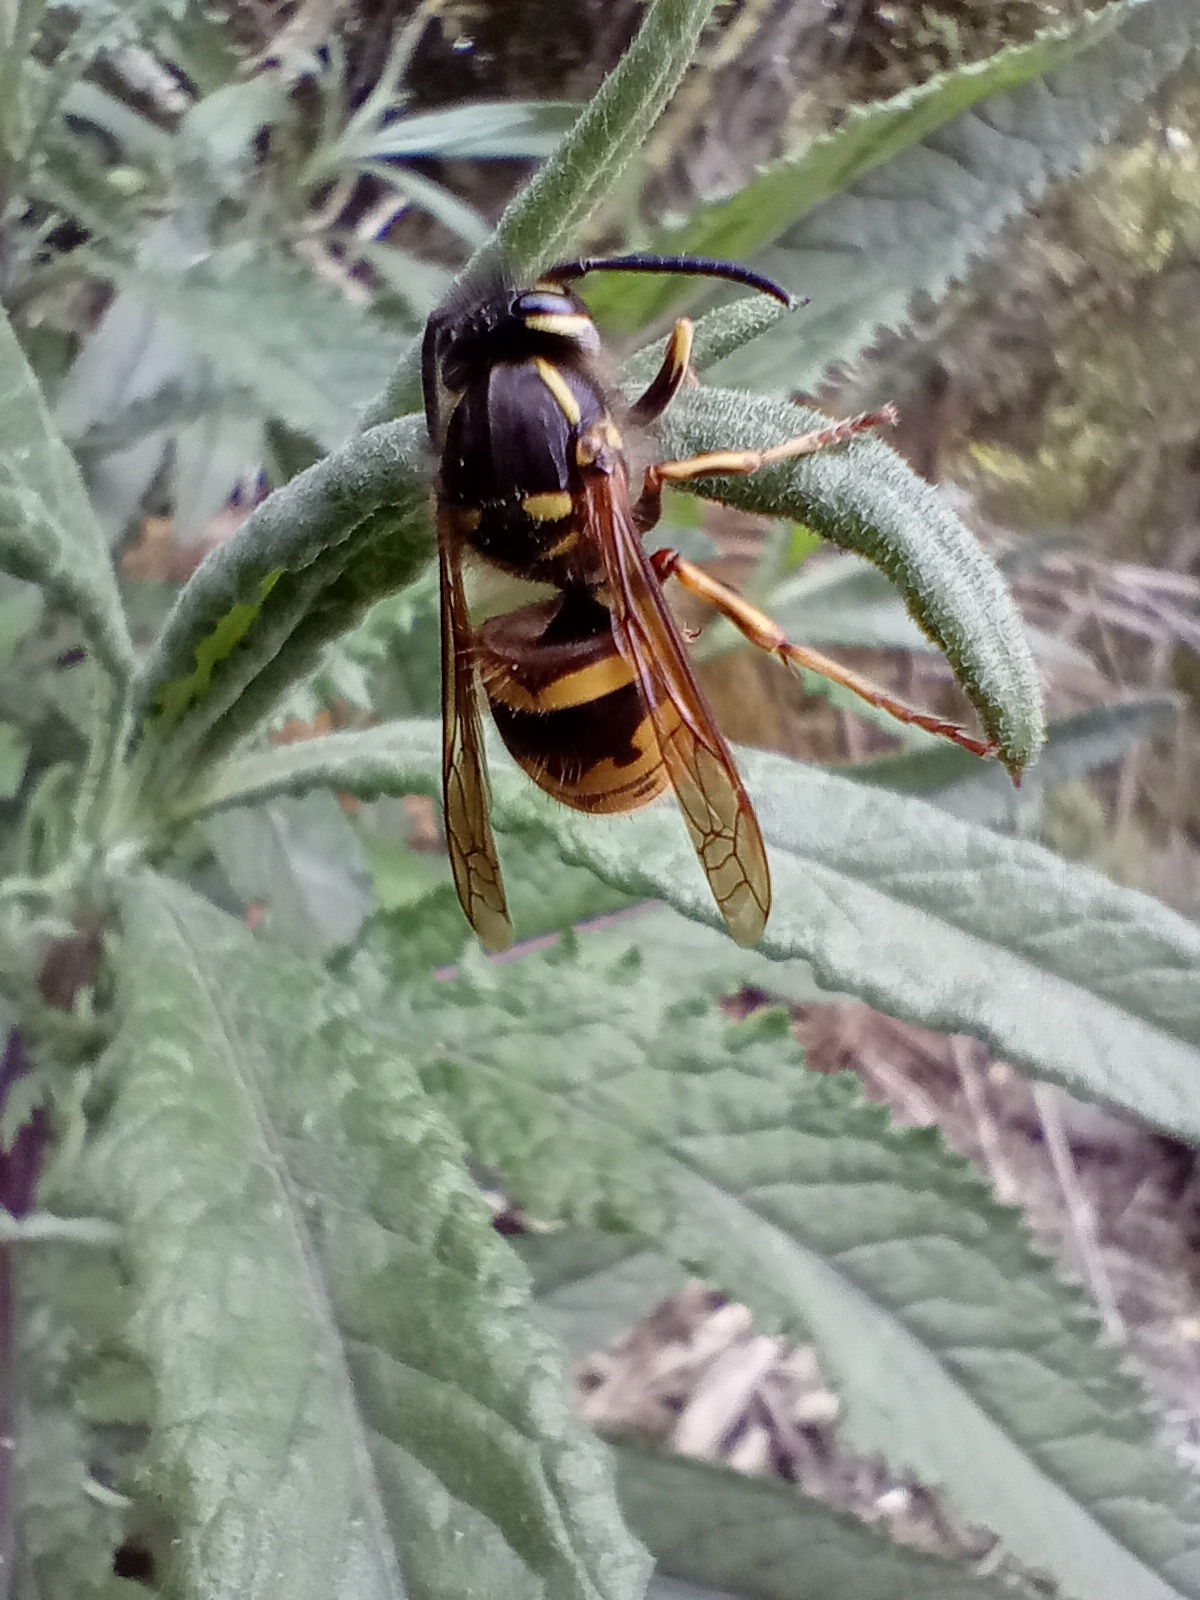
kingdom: Animalia
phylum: Arthropoda
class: Insecta
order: Hymenoptera
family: Vespidae
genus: Vespula
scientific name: Vespula vulgaris
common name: Common wasp
